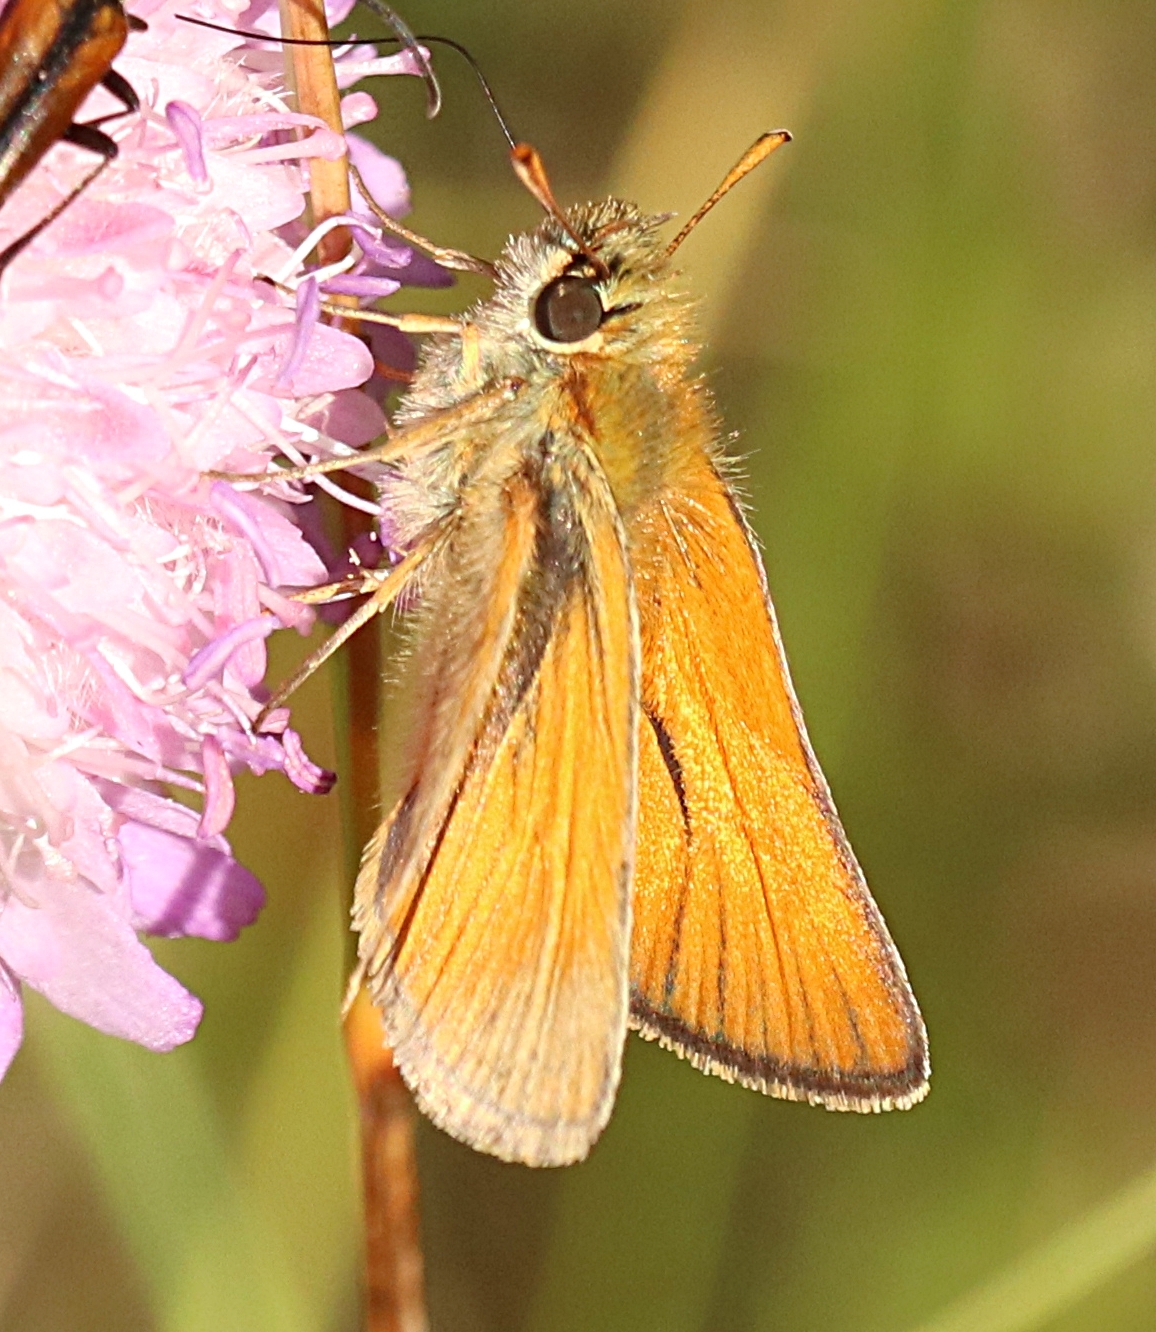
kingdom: Animalia
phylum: Arthropoda
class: Insecta
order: Lepidoptera
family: Hesperiidae
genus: Thymelicus
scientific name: Thymelicus sylvestris
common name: Small skipper
